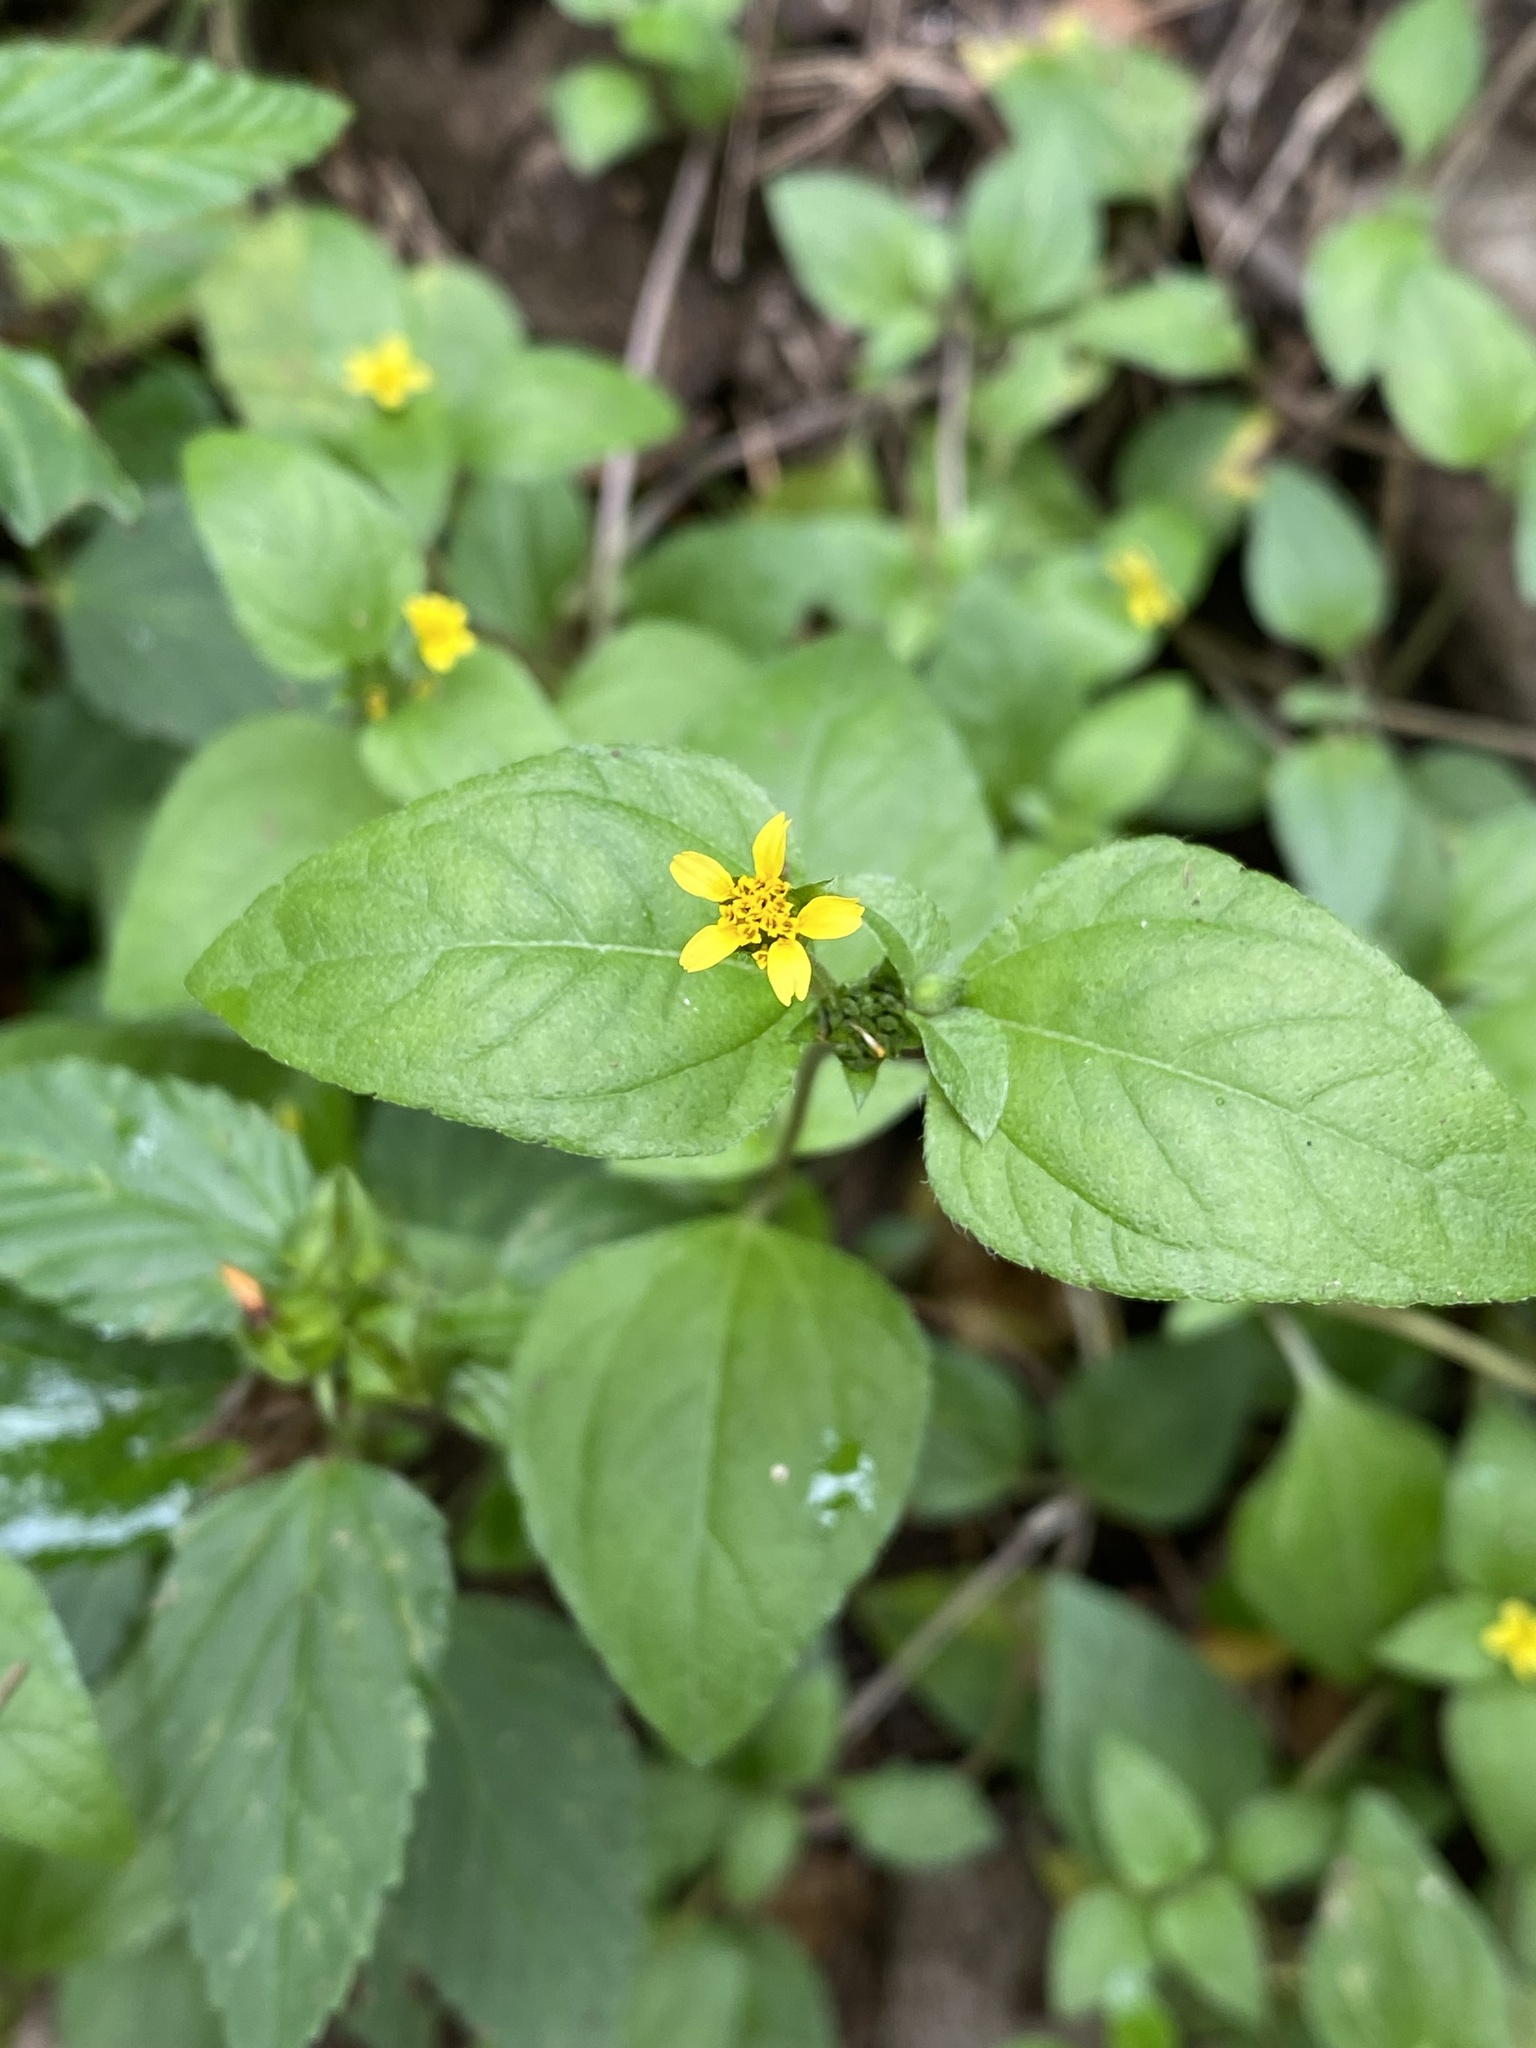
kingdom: Plantae
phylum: Tracheophyta
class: Magnoliopsida
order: Asterales
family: Asteraceae
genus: Calyptocarpus
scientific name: Calyptocarpus vialis
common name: Straggler daisy
